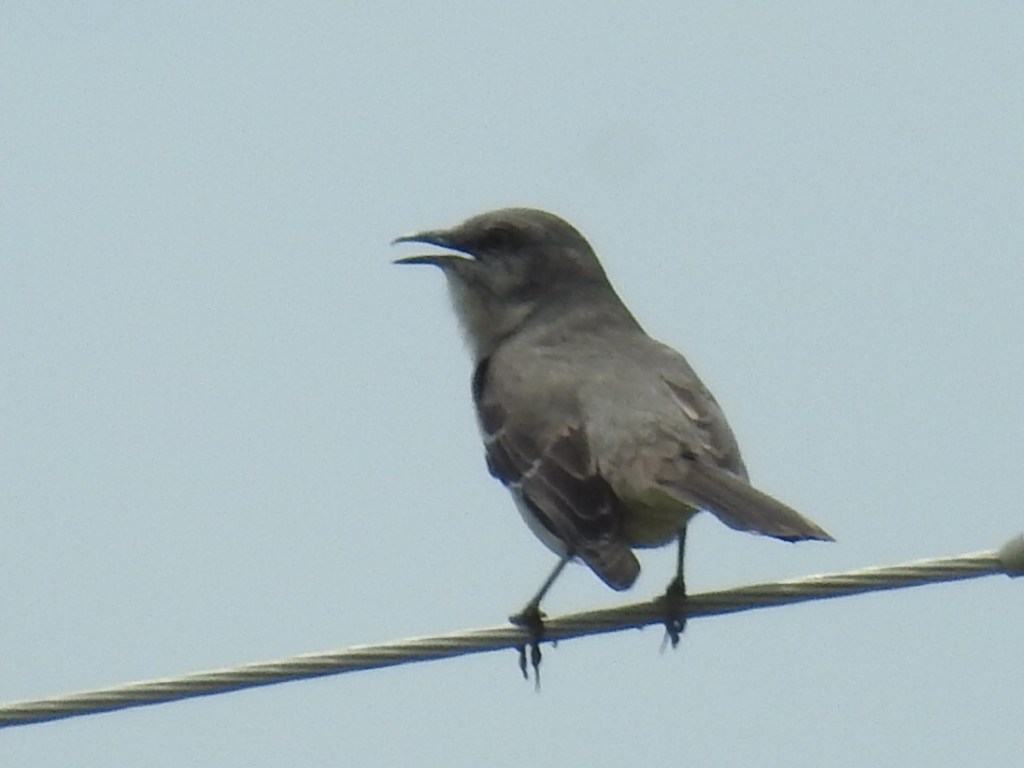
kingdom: Animalia
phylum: Chordata
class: Aves
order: Passeriformes
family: Mimidae
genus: Mimus
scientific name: Mimus polyglottos
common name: Northern mockingbird
